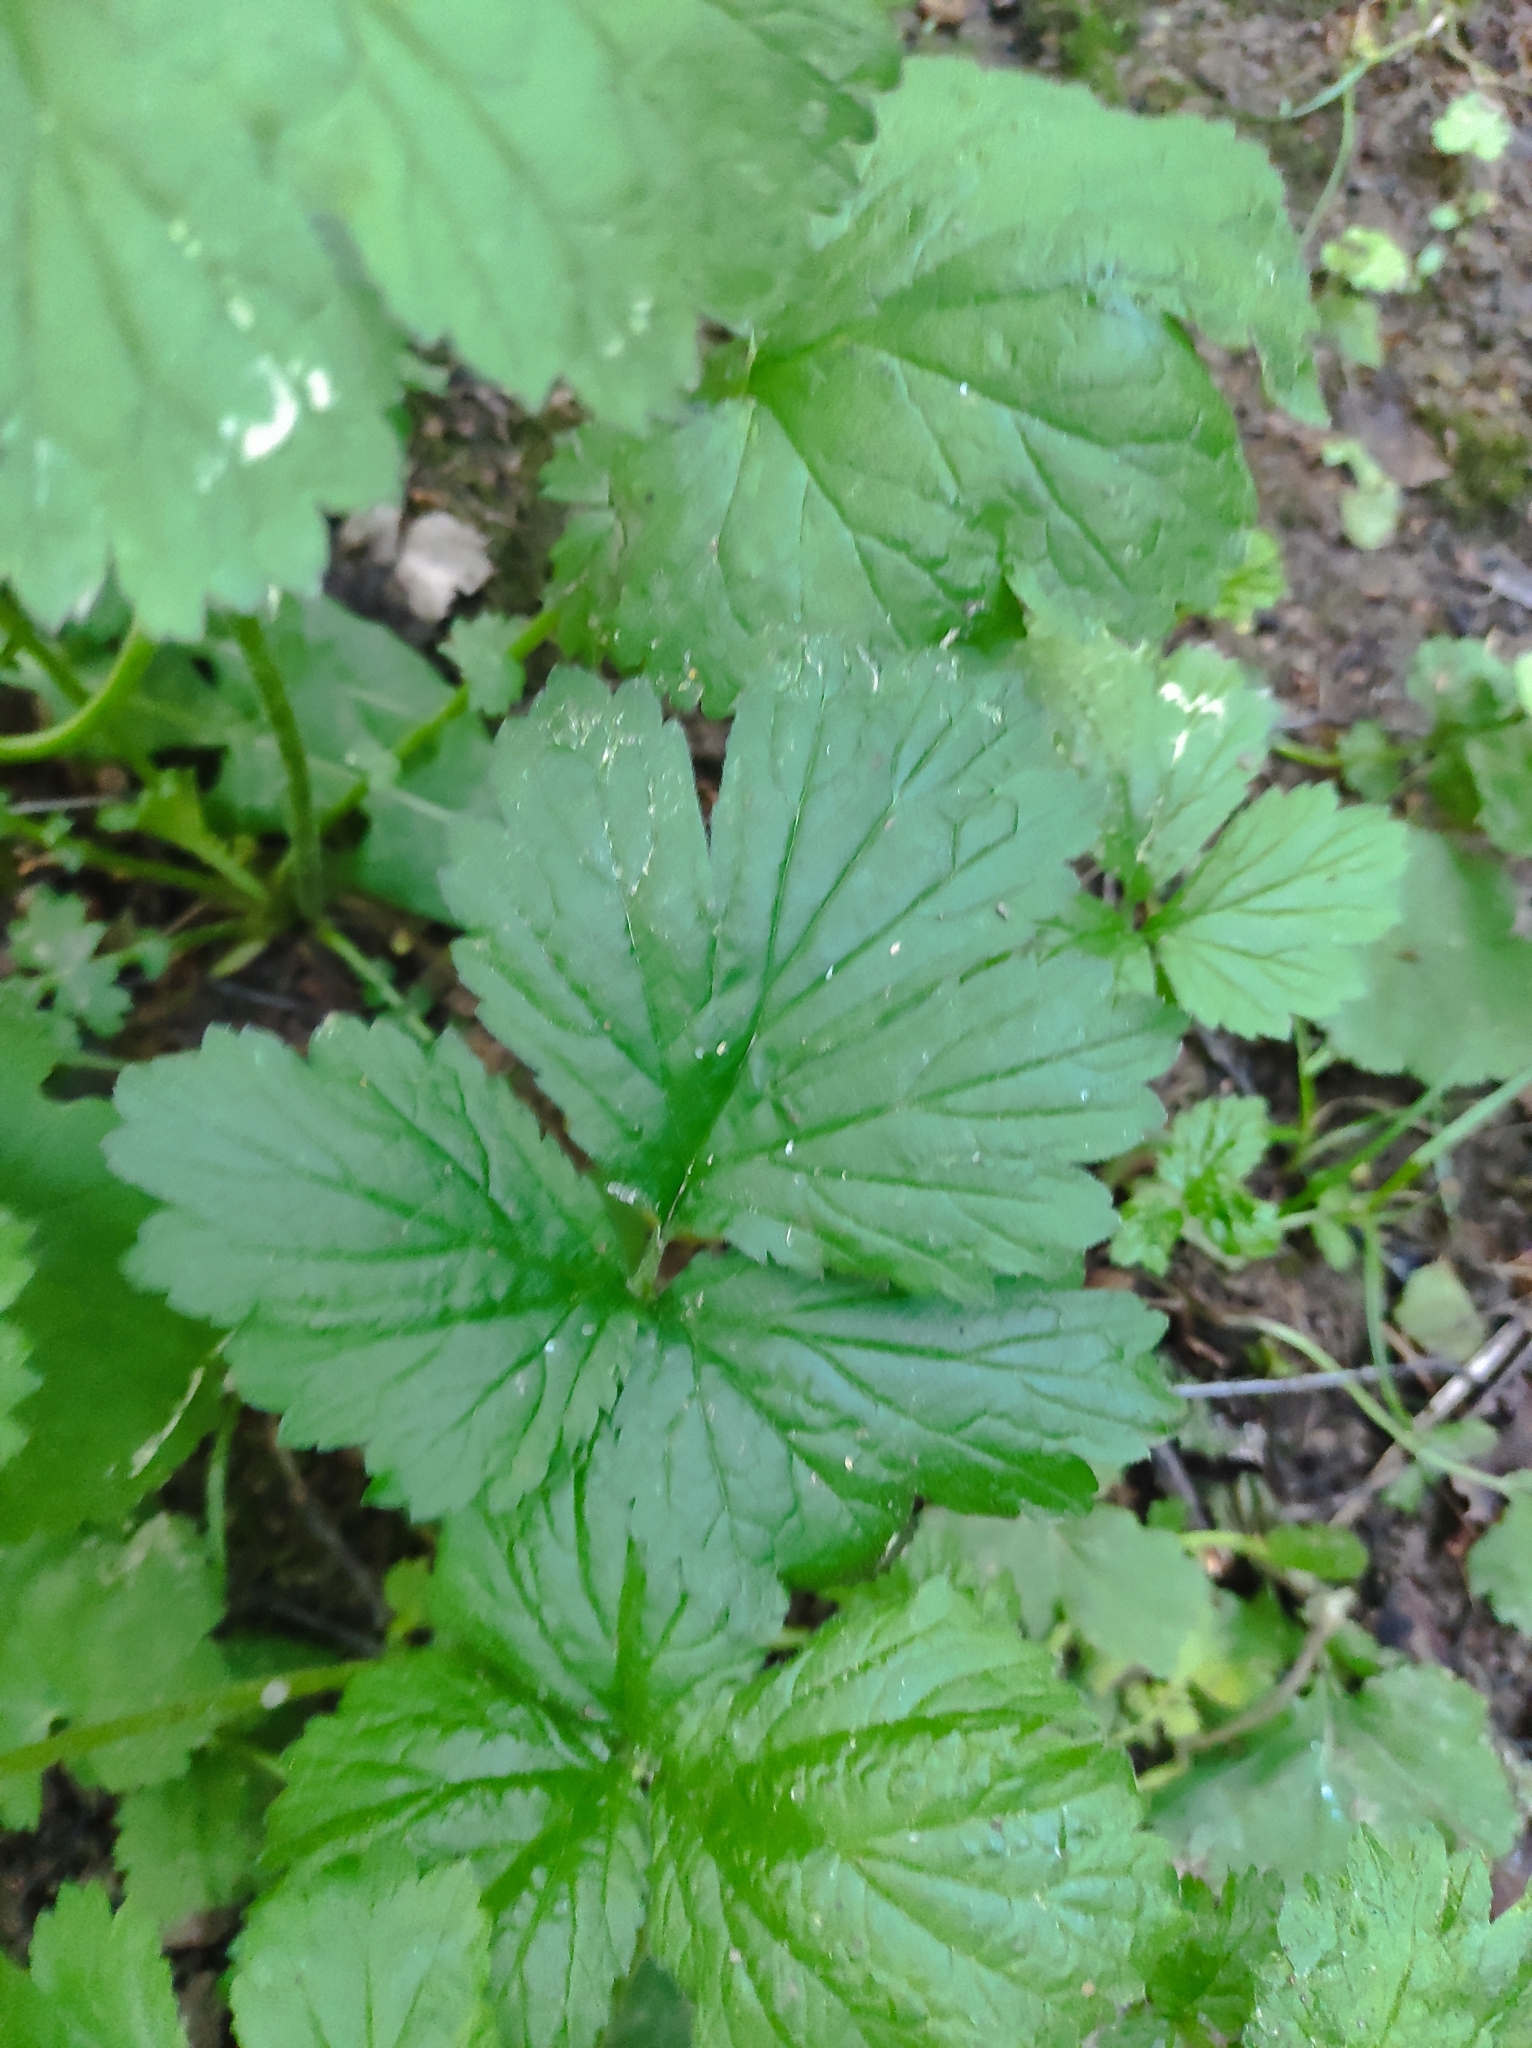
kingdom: Plantae
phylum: Tracheophyta
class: Magnoliopsida
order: Rosales
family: Rosaceae
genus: Geum
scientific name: Geum macrophyllum
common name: Large-leaved avens
